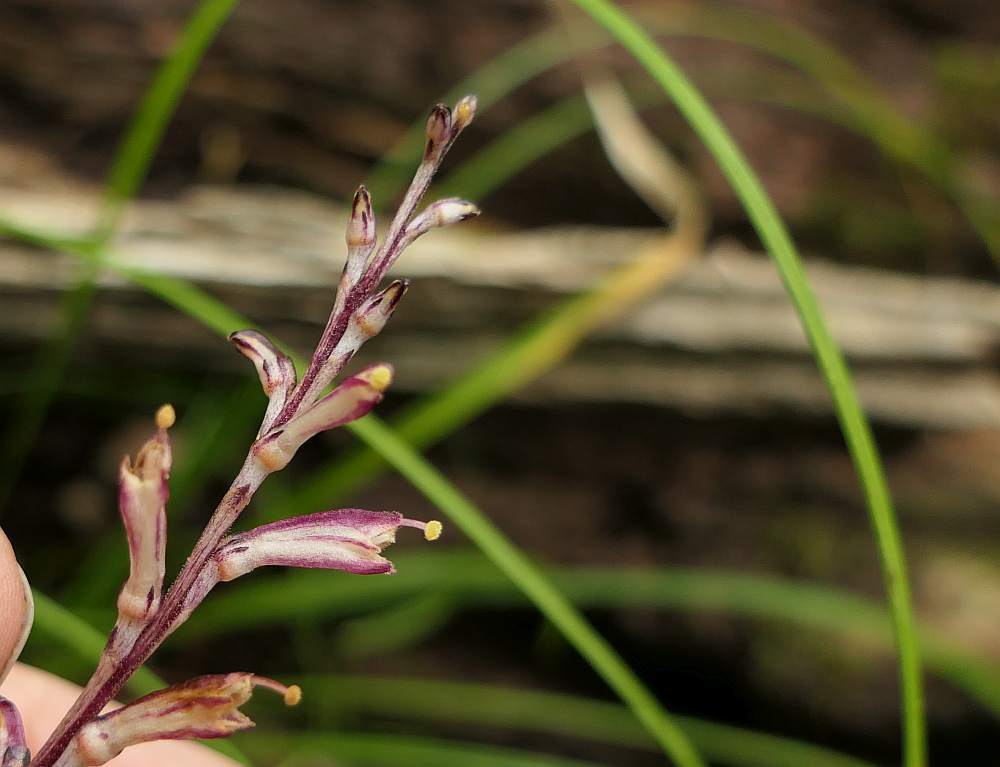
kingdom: Plantae
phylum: Tracheophyta
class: Magnoliopsida
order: Lamiales
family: Orobanchaceae
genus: Epifagus
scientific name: Epifagus virginiana
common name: Beechdrops
